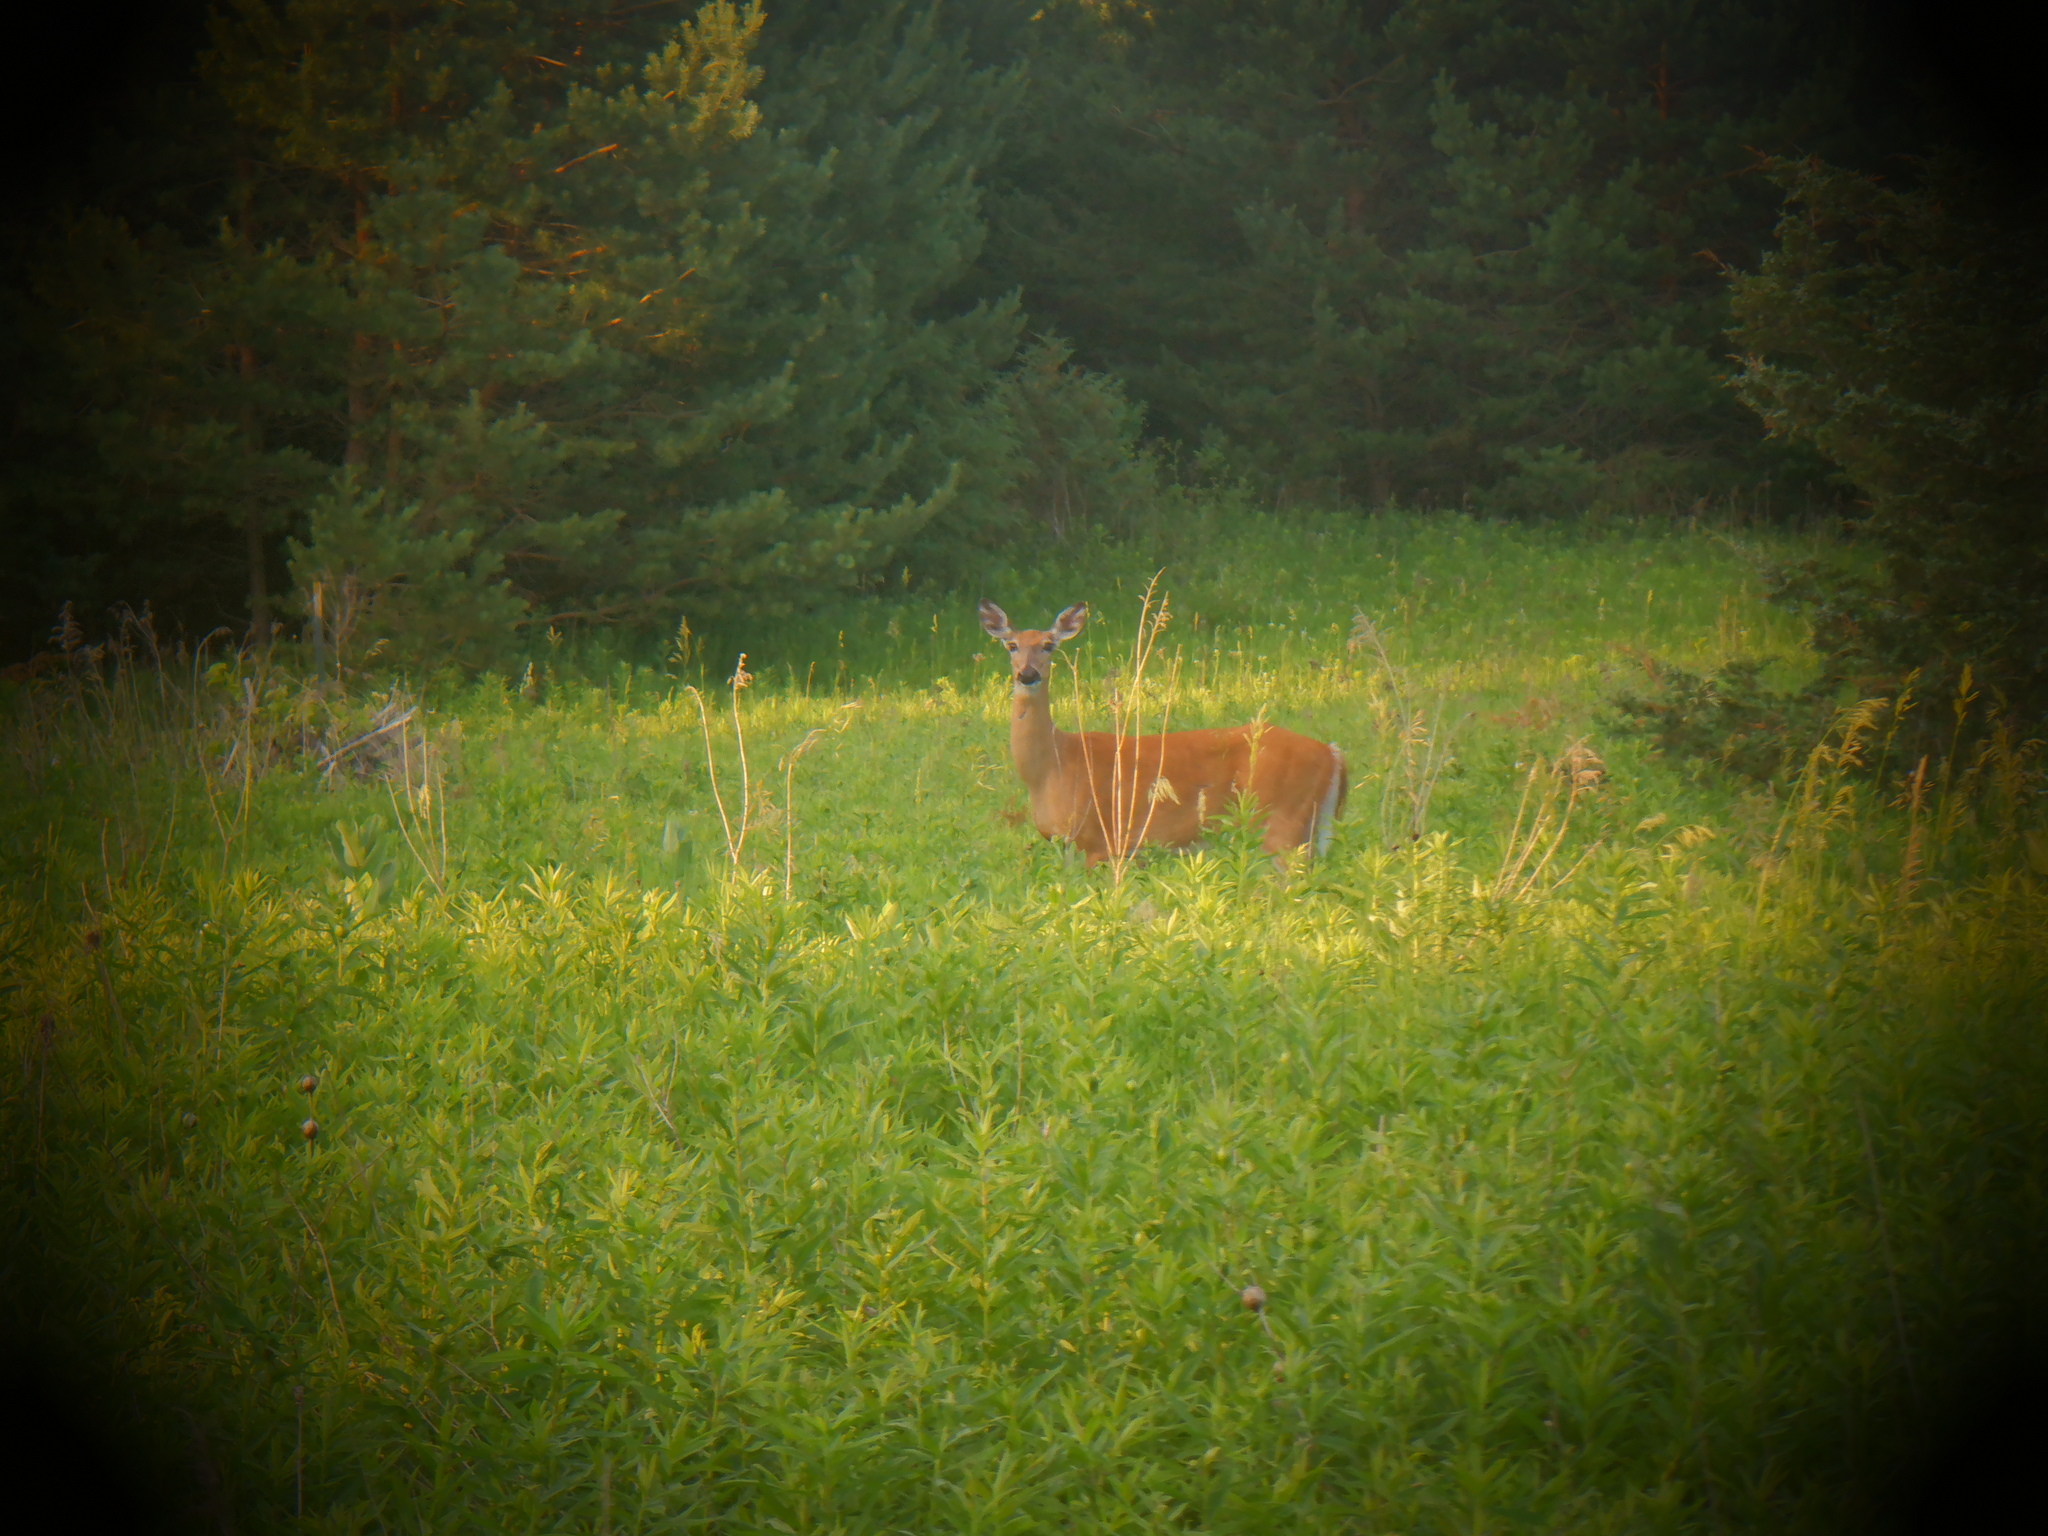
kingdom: Animalia
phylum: Chordata
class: Mammalia
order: Artiodactyla
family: Cervidae
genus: Odocoileus
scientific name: Odocoileus virginianus
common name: White-tailed deer
